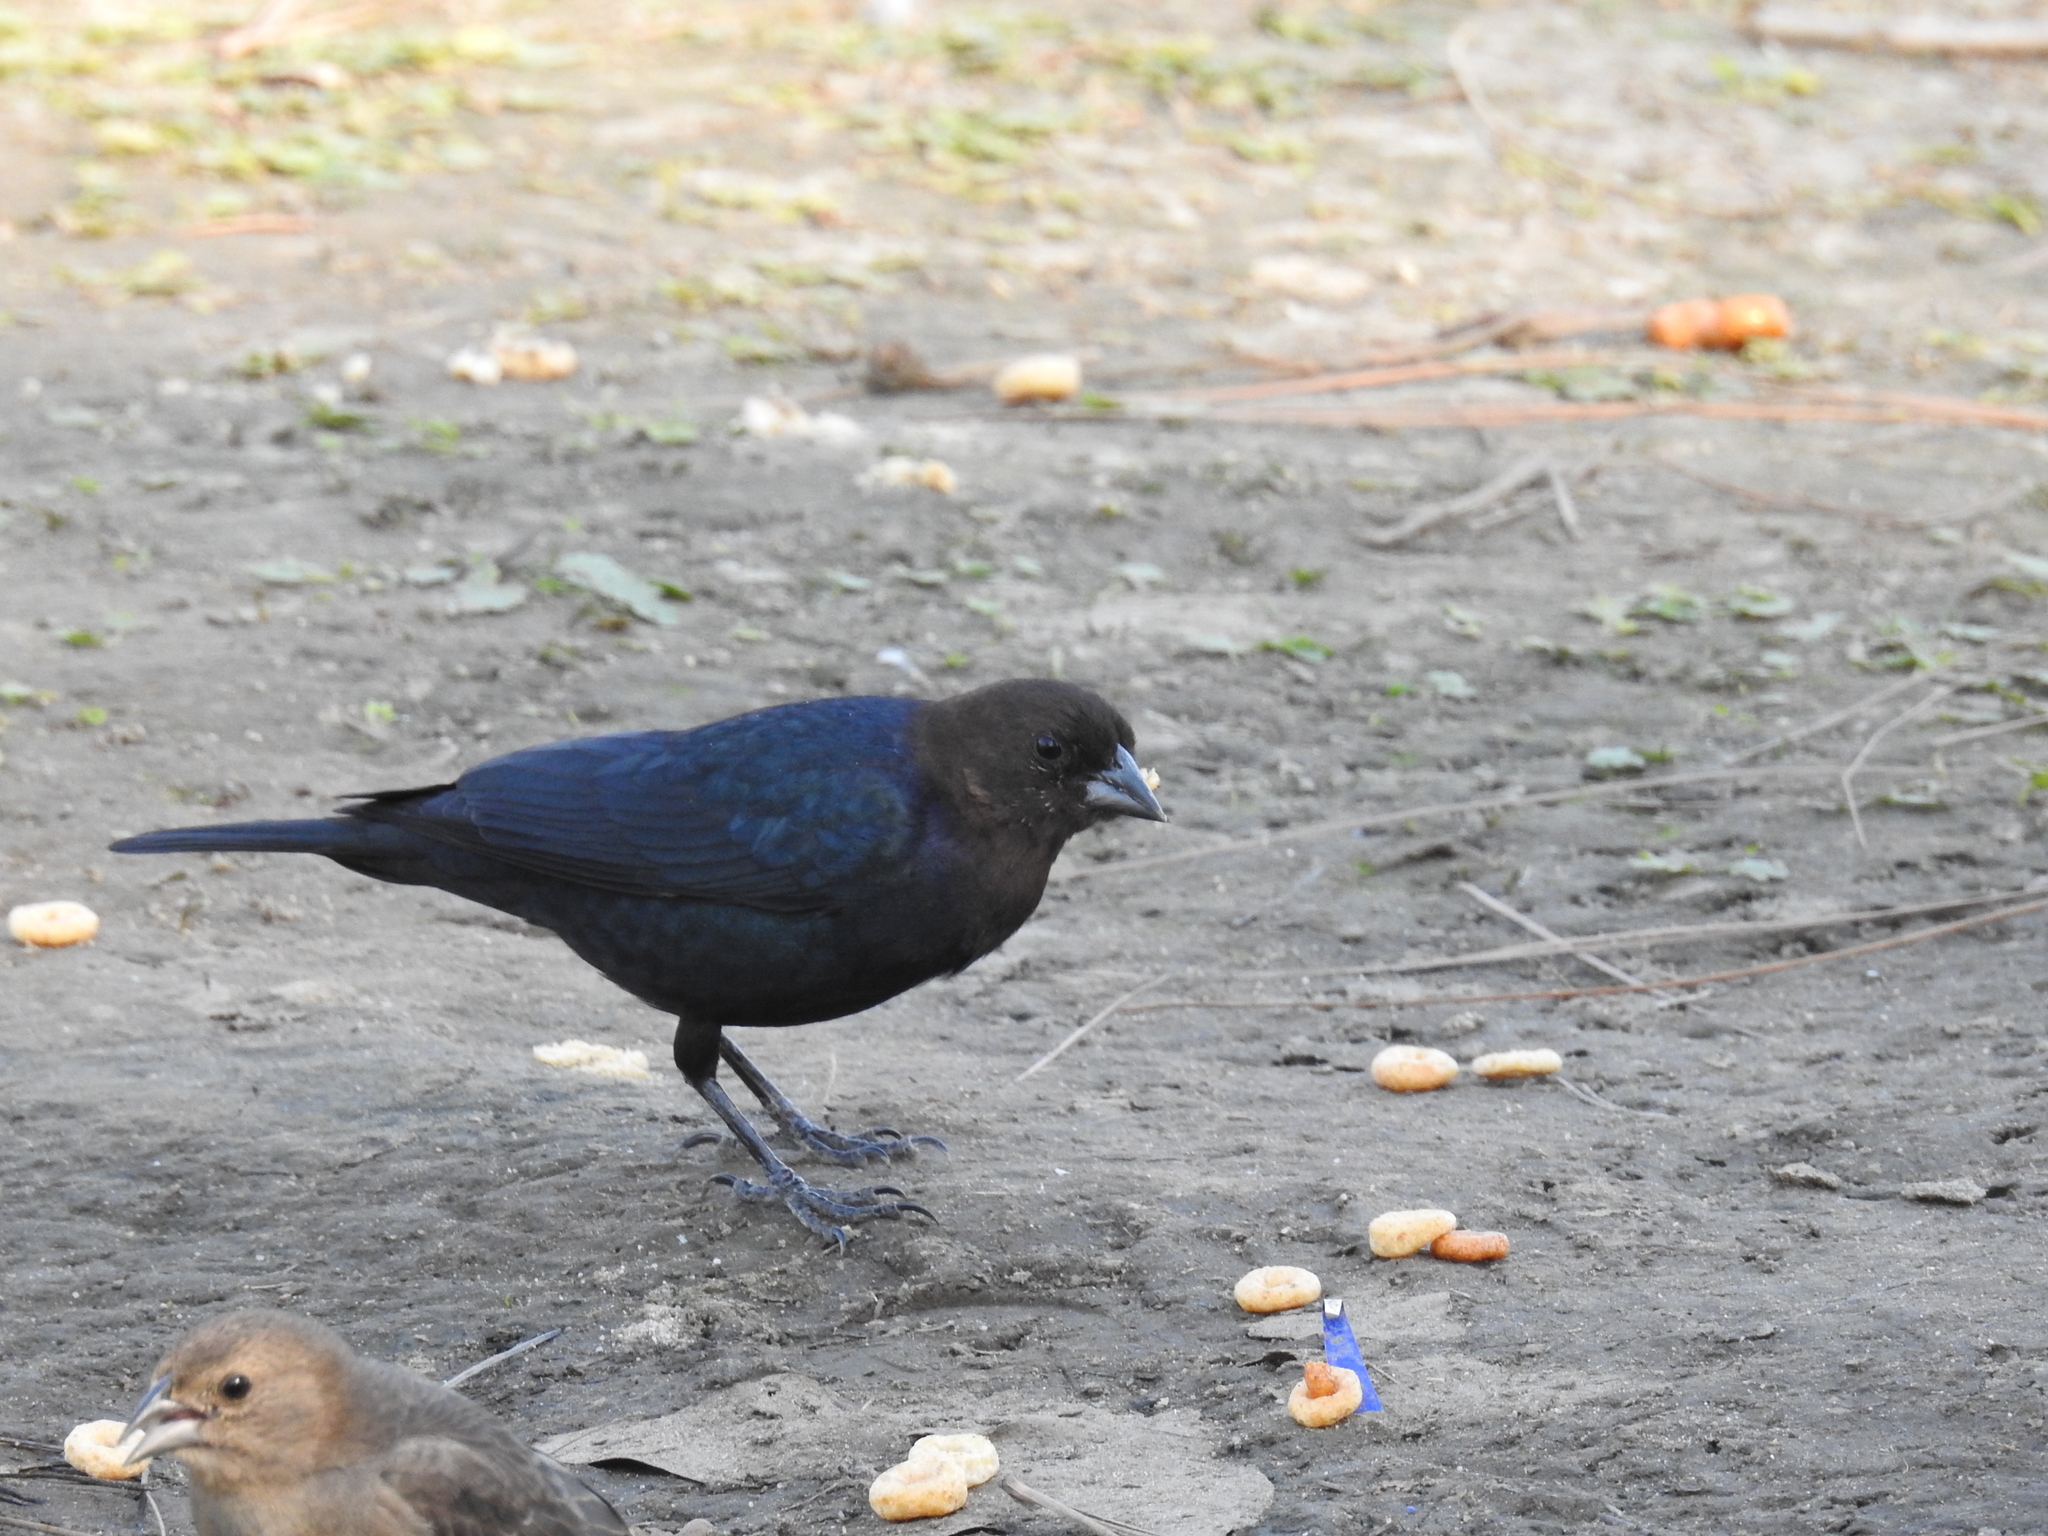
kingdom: Animalia
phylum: Chordata
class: Aves
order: Passeriformes
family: Icteridae
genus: Molothrus
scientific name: Molothrus ater
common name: Brown-headed cowbird
